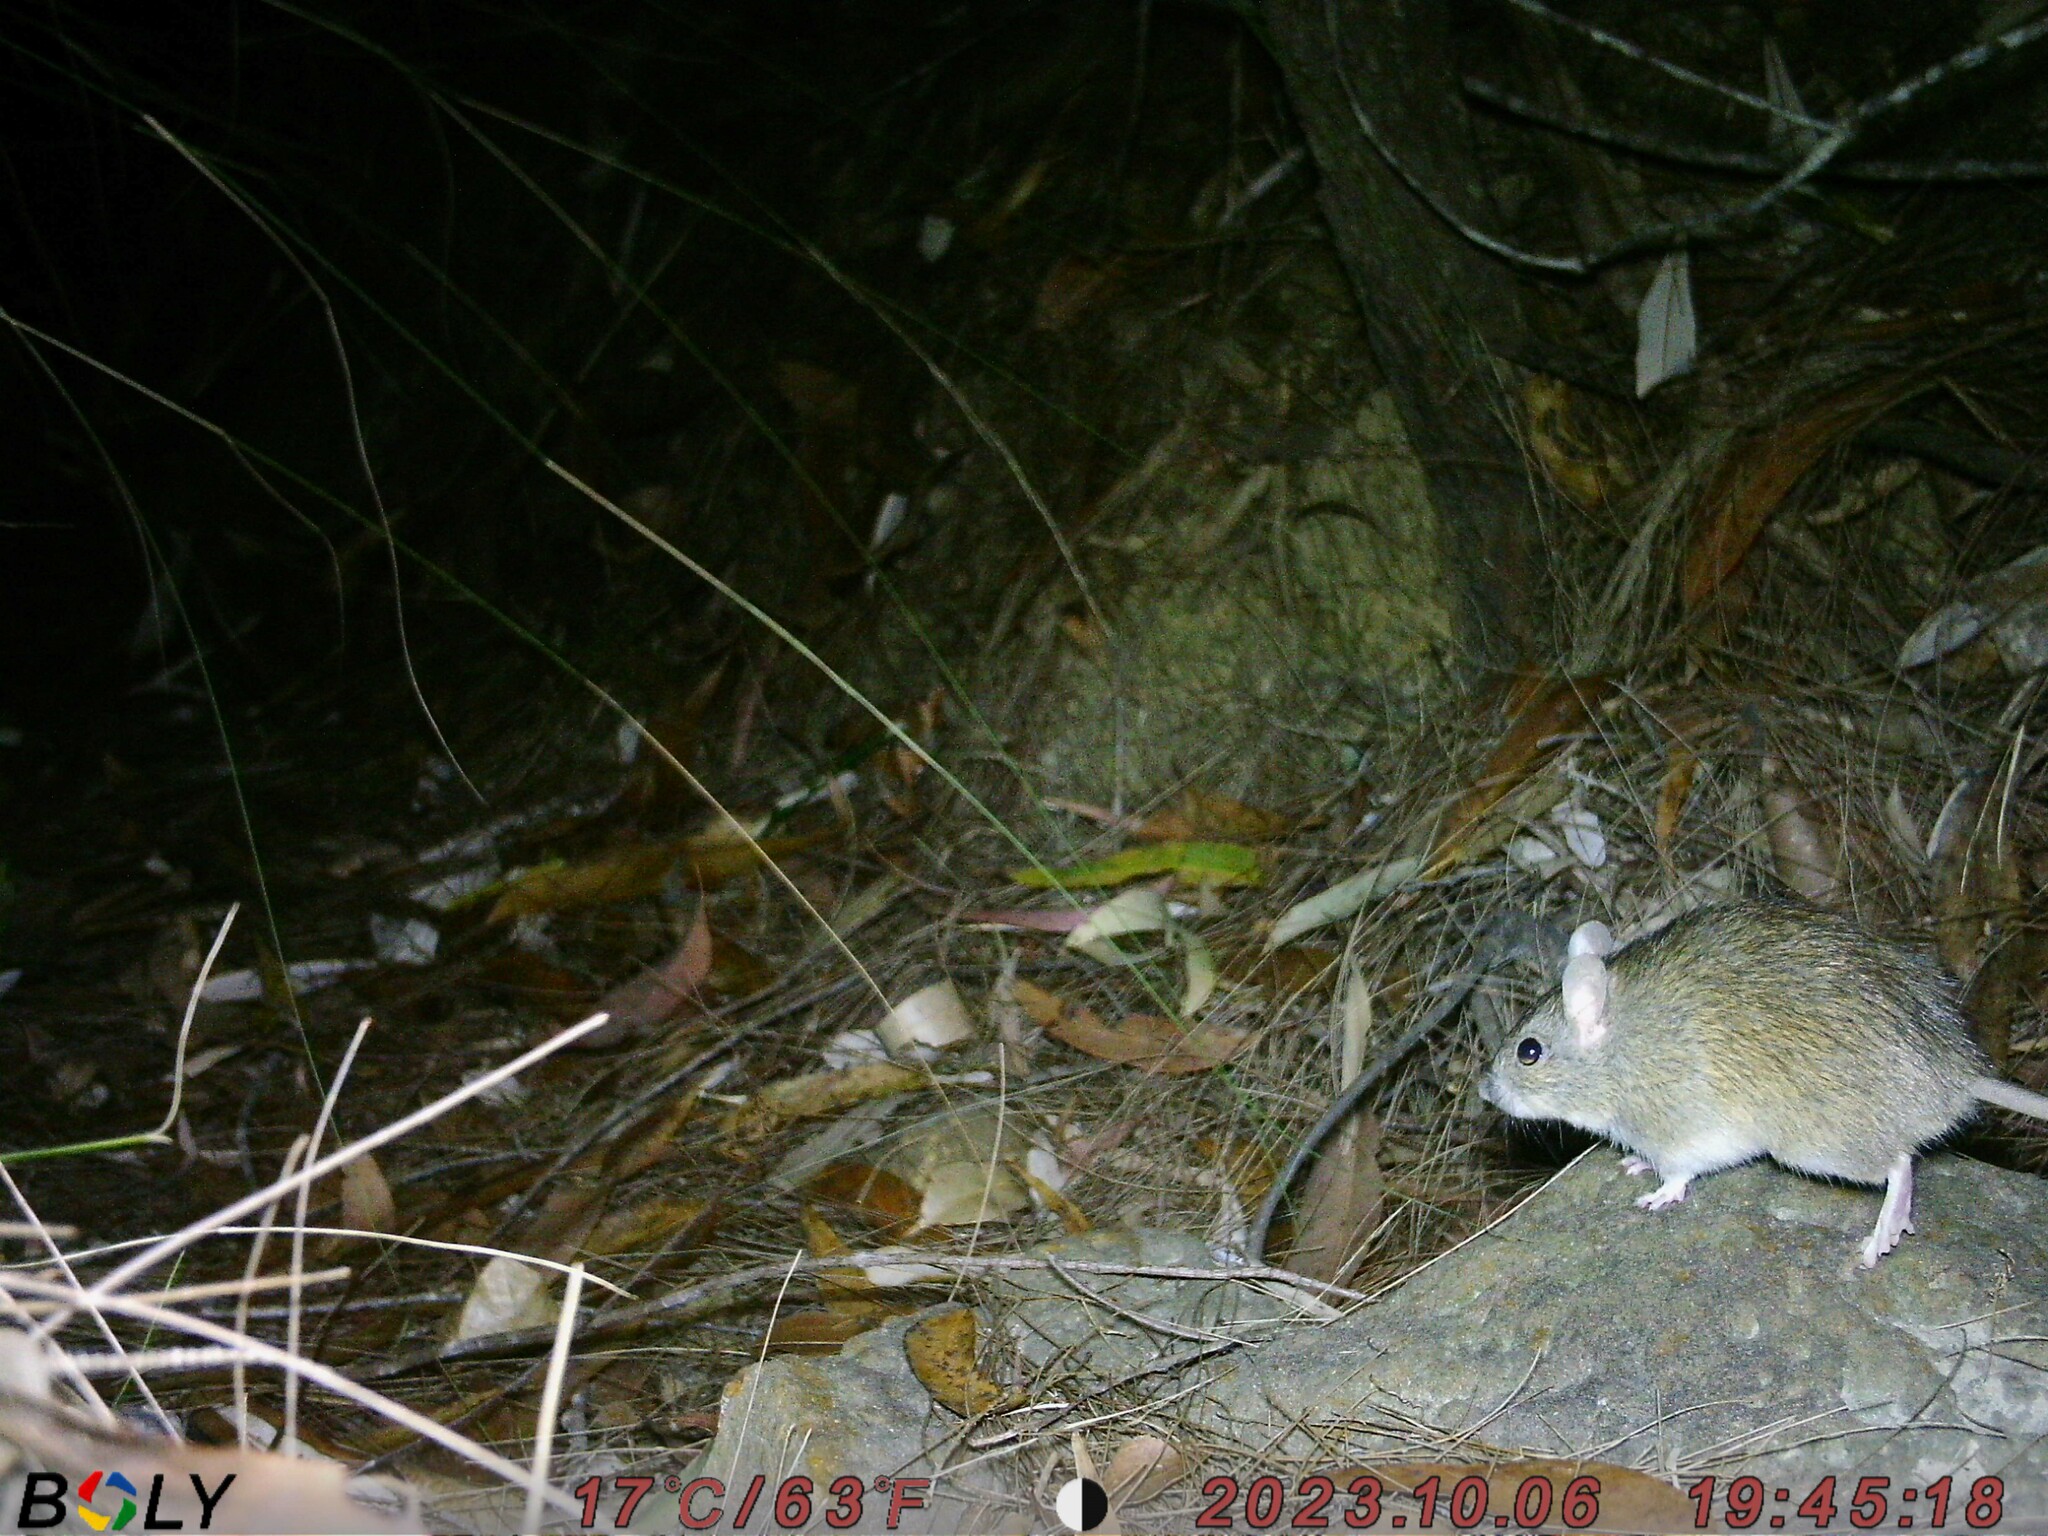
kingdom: Animalia
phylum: Chordata
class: Mammalia
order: Rodentia
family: Muridae
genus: Rattus
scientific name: Rattus tunneyi
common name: Australian pale field rat
